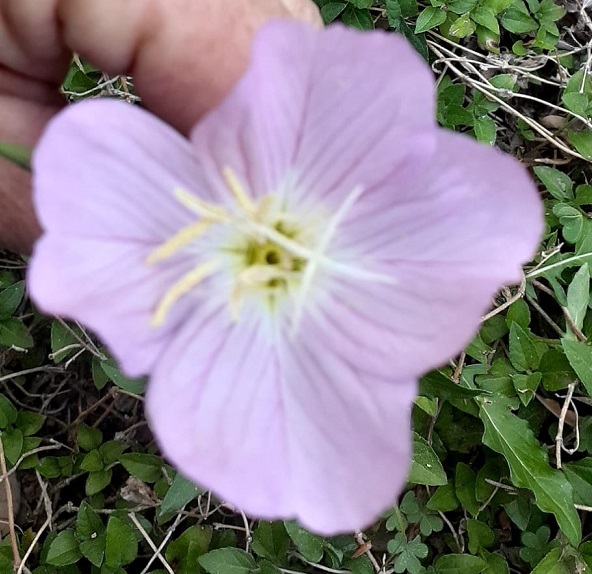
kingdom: Plantae
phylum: Tracheophyta
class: Magnoliopsida
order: Myrtales
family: Onagraceae
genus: Oenothera
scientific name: Oenothera speciosa
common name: White evening-primrose
